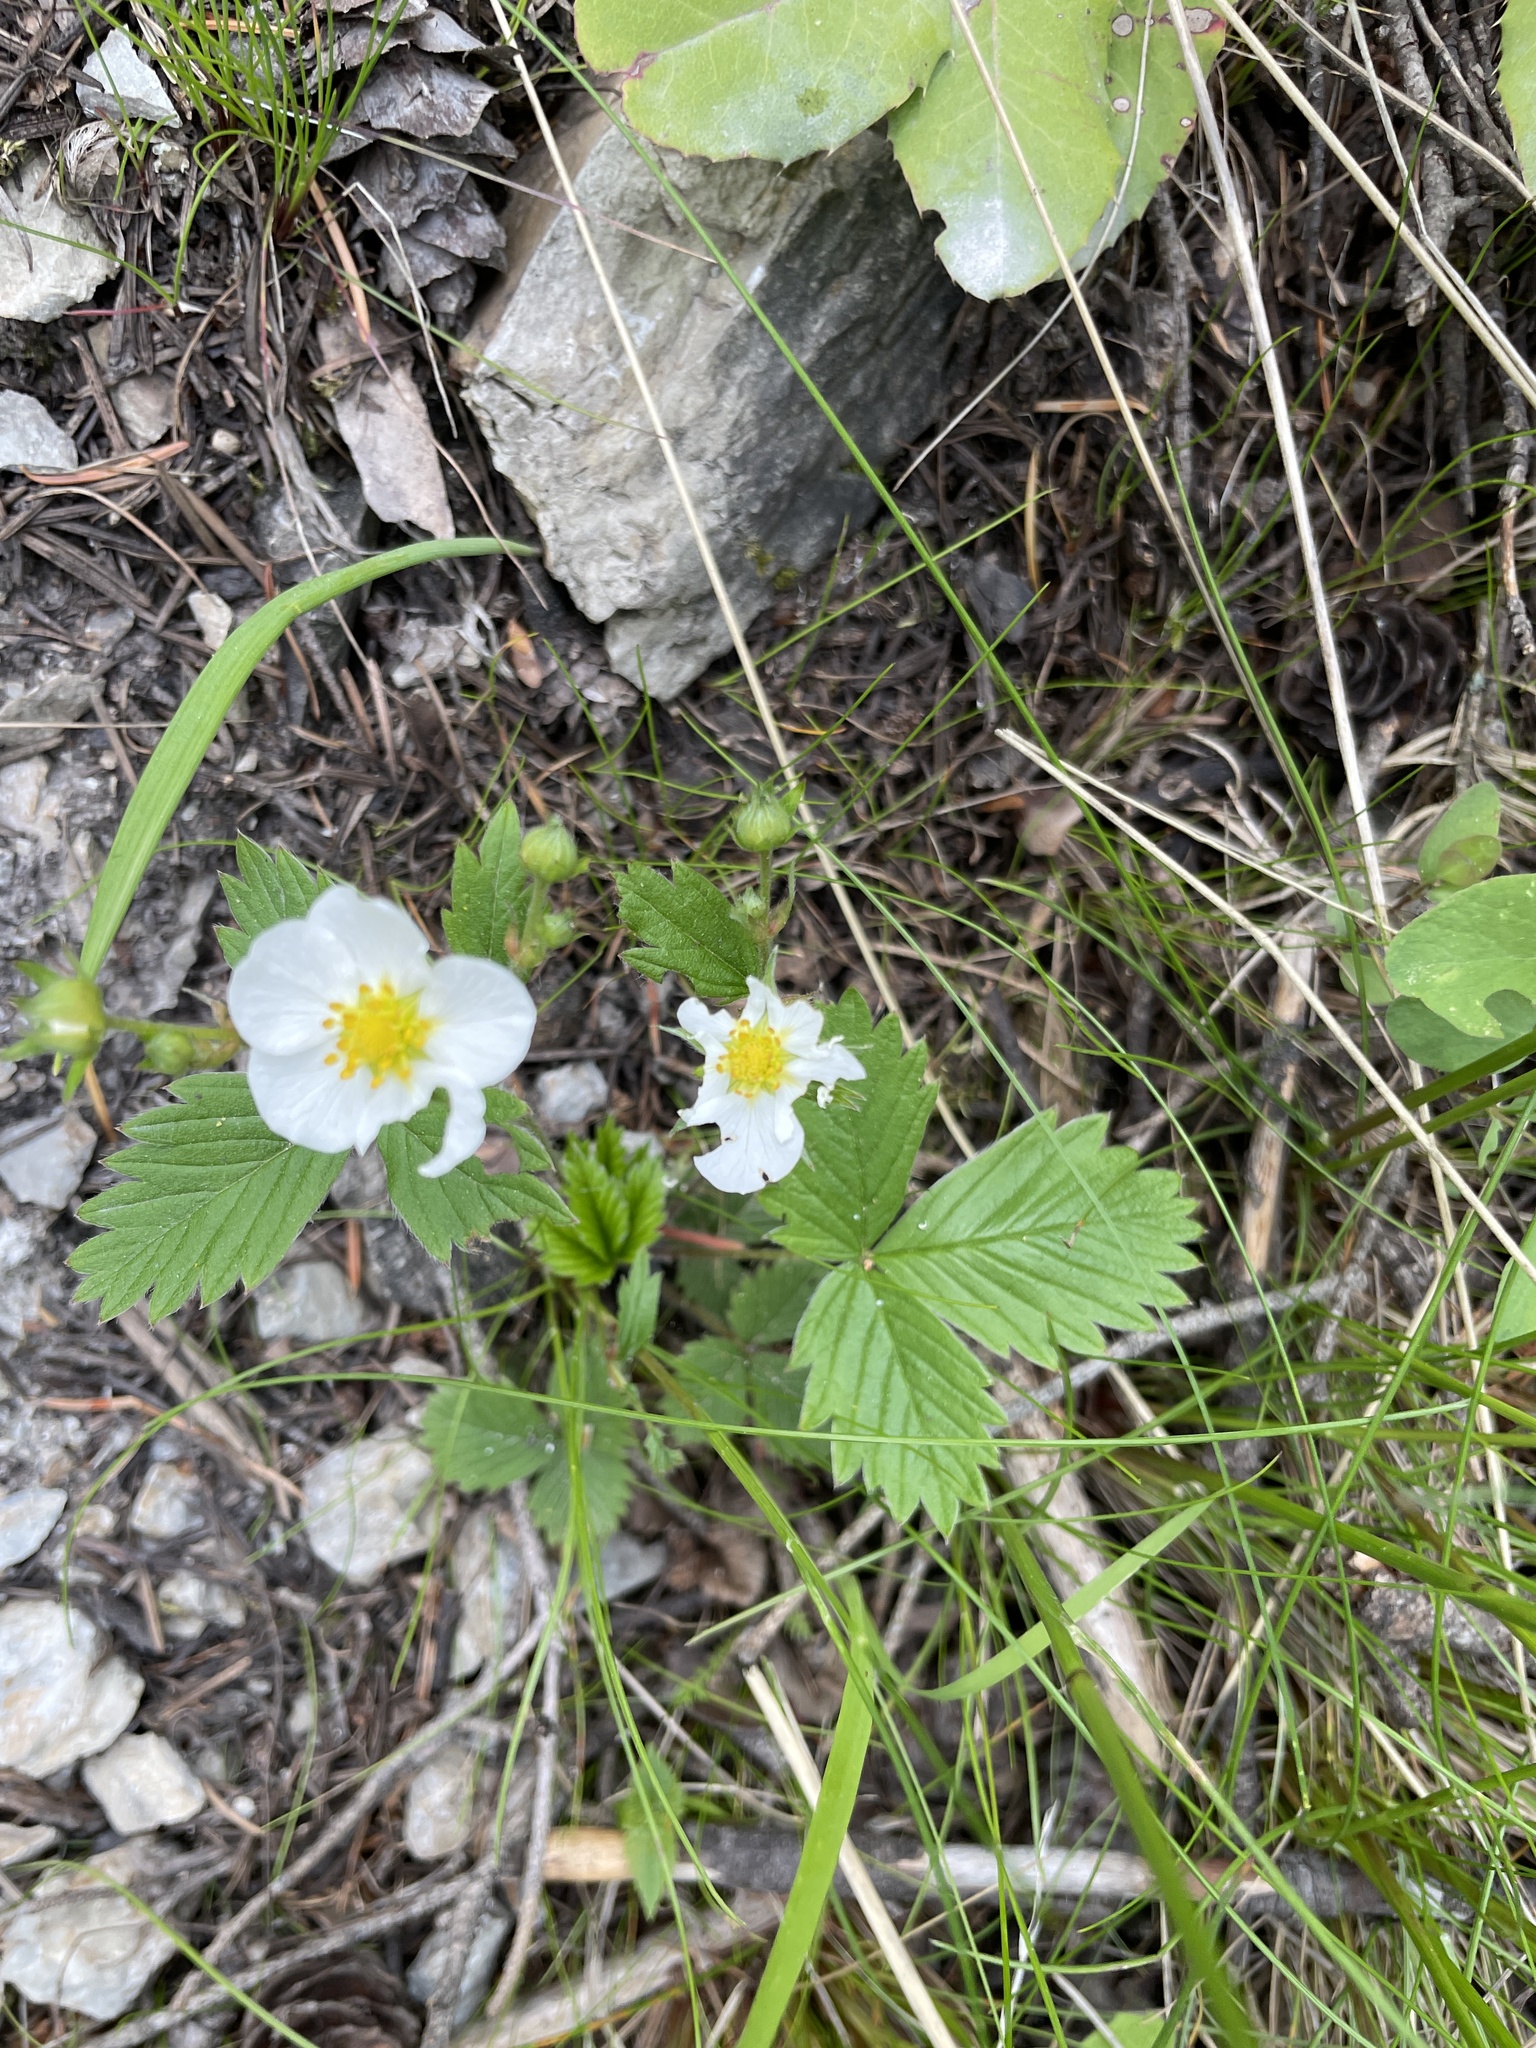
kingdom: Plantae
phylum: Tracheophyta
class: Magnoliopsida
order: Rosales
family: Rosaceae
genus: Fragaria
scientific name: Fragaria vesca
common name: Wild strawberry
